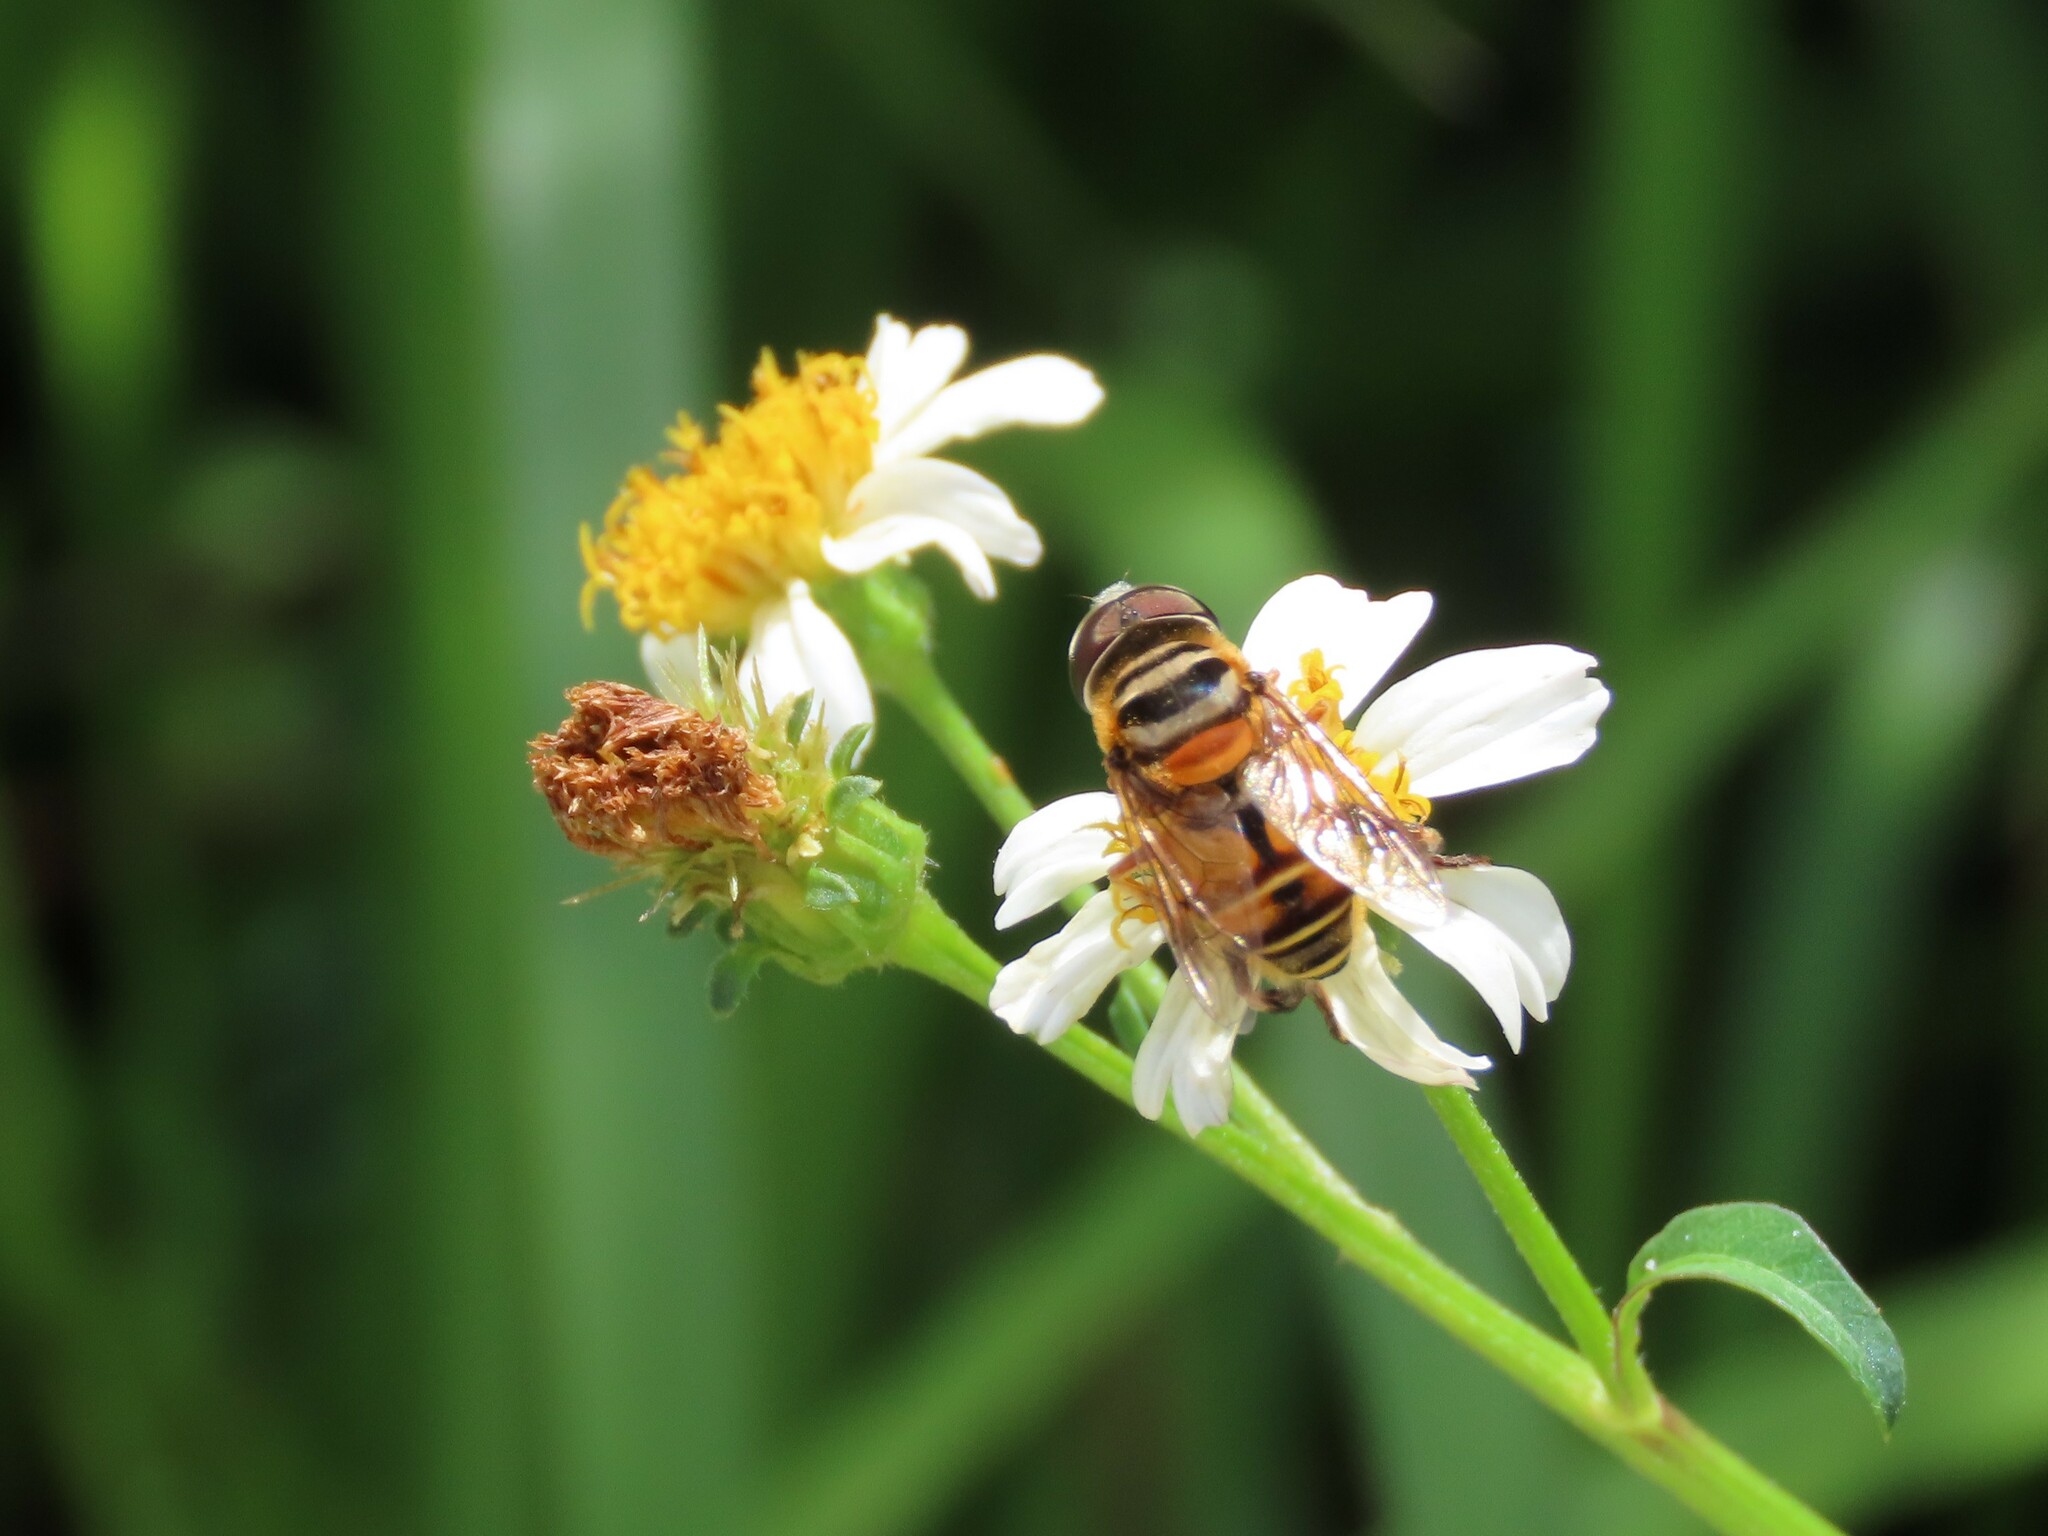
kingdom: Animalia
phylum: Arthropoda
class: Insecta
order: Diptera
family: Syrphidae
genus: Palpada
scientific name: Palpada vinetorum
